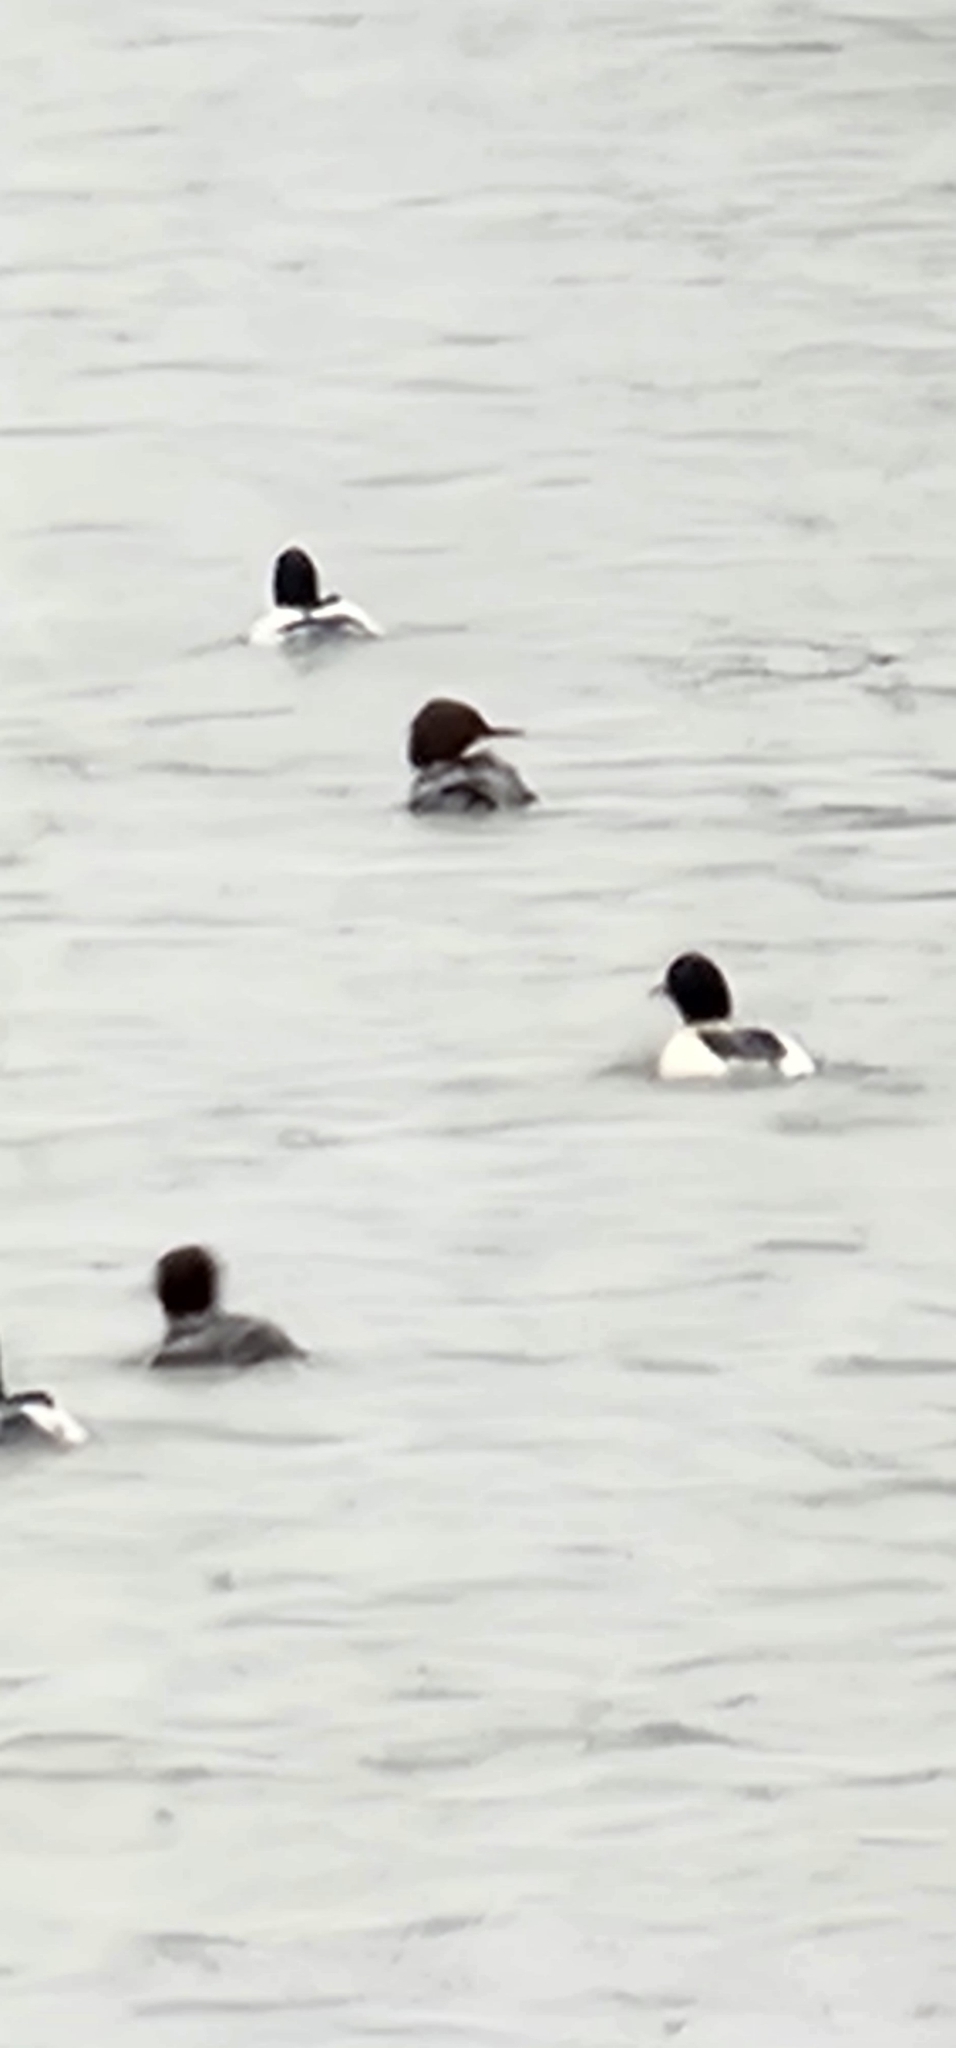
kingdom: Animalia
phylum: Chordata
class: Aves
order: Anseriformes
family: Anatidae
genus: Mergus
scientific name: Mergus merganser
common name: Common merganser
